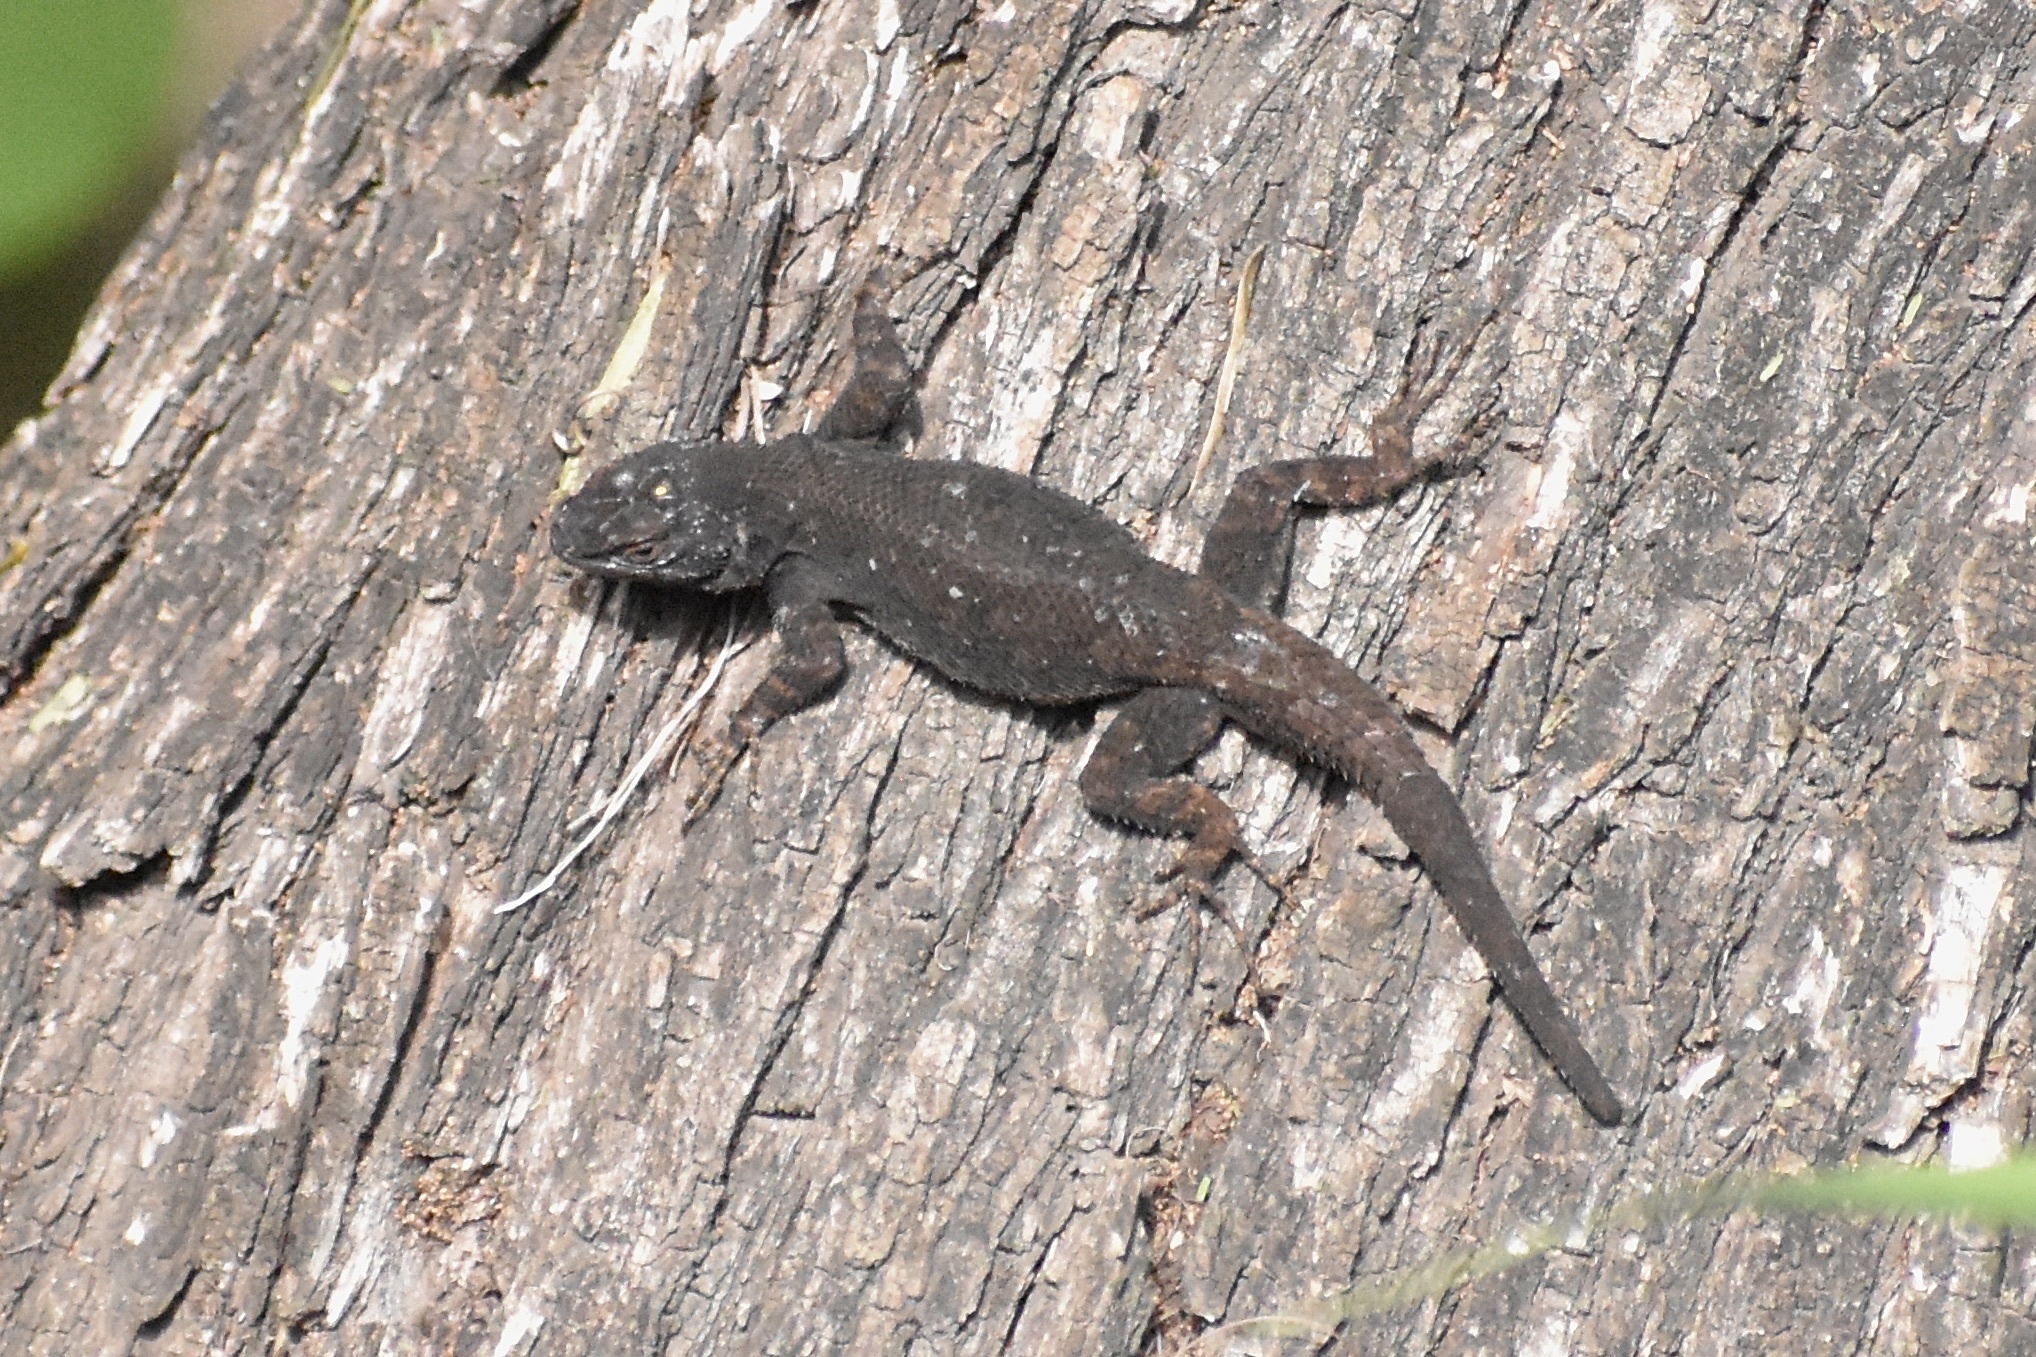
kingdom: Animalia
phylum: Chordata
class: Squamata
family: Phrynosomatidae
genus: Sceloporus
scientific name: Sceloporus grammicus
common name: Mesquite lizard
